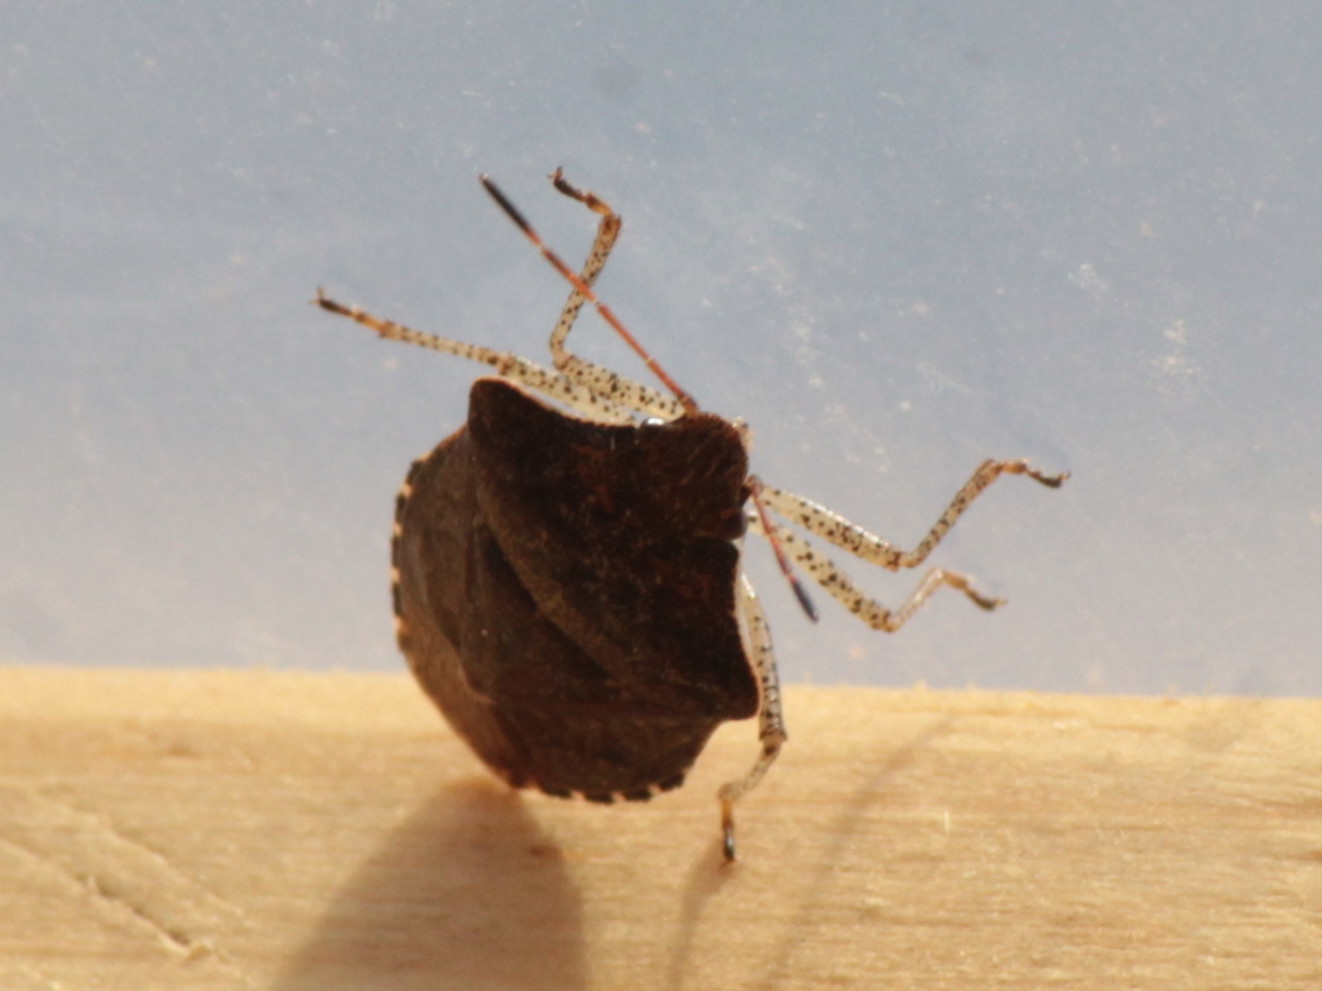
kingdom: Animalia
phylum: Arthropoda
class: Insecta
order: Hemiptera
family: Pentatomidae
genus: Euschistus
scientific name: Euschistus tristigmus
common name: Dusky stink bug
